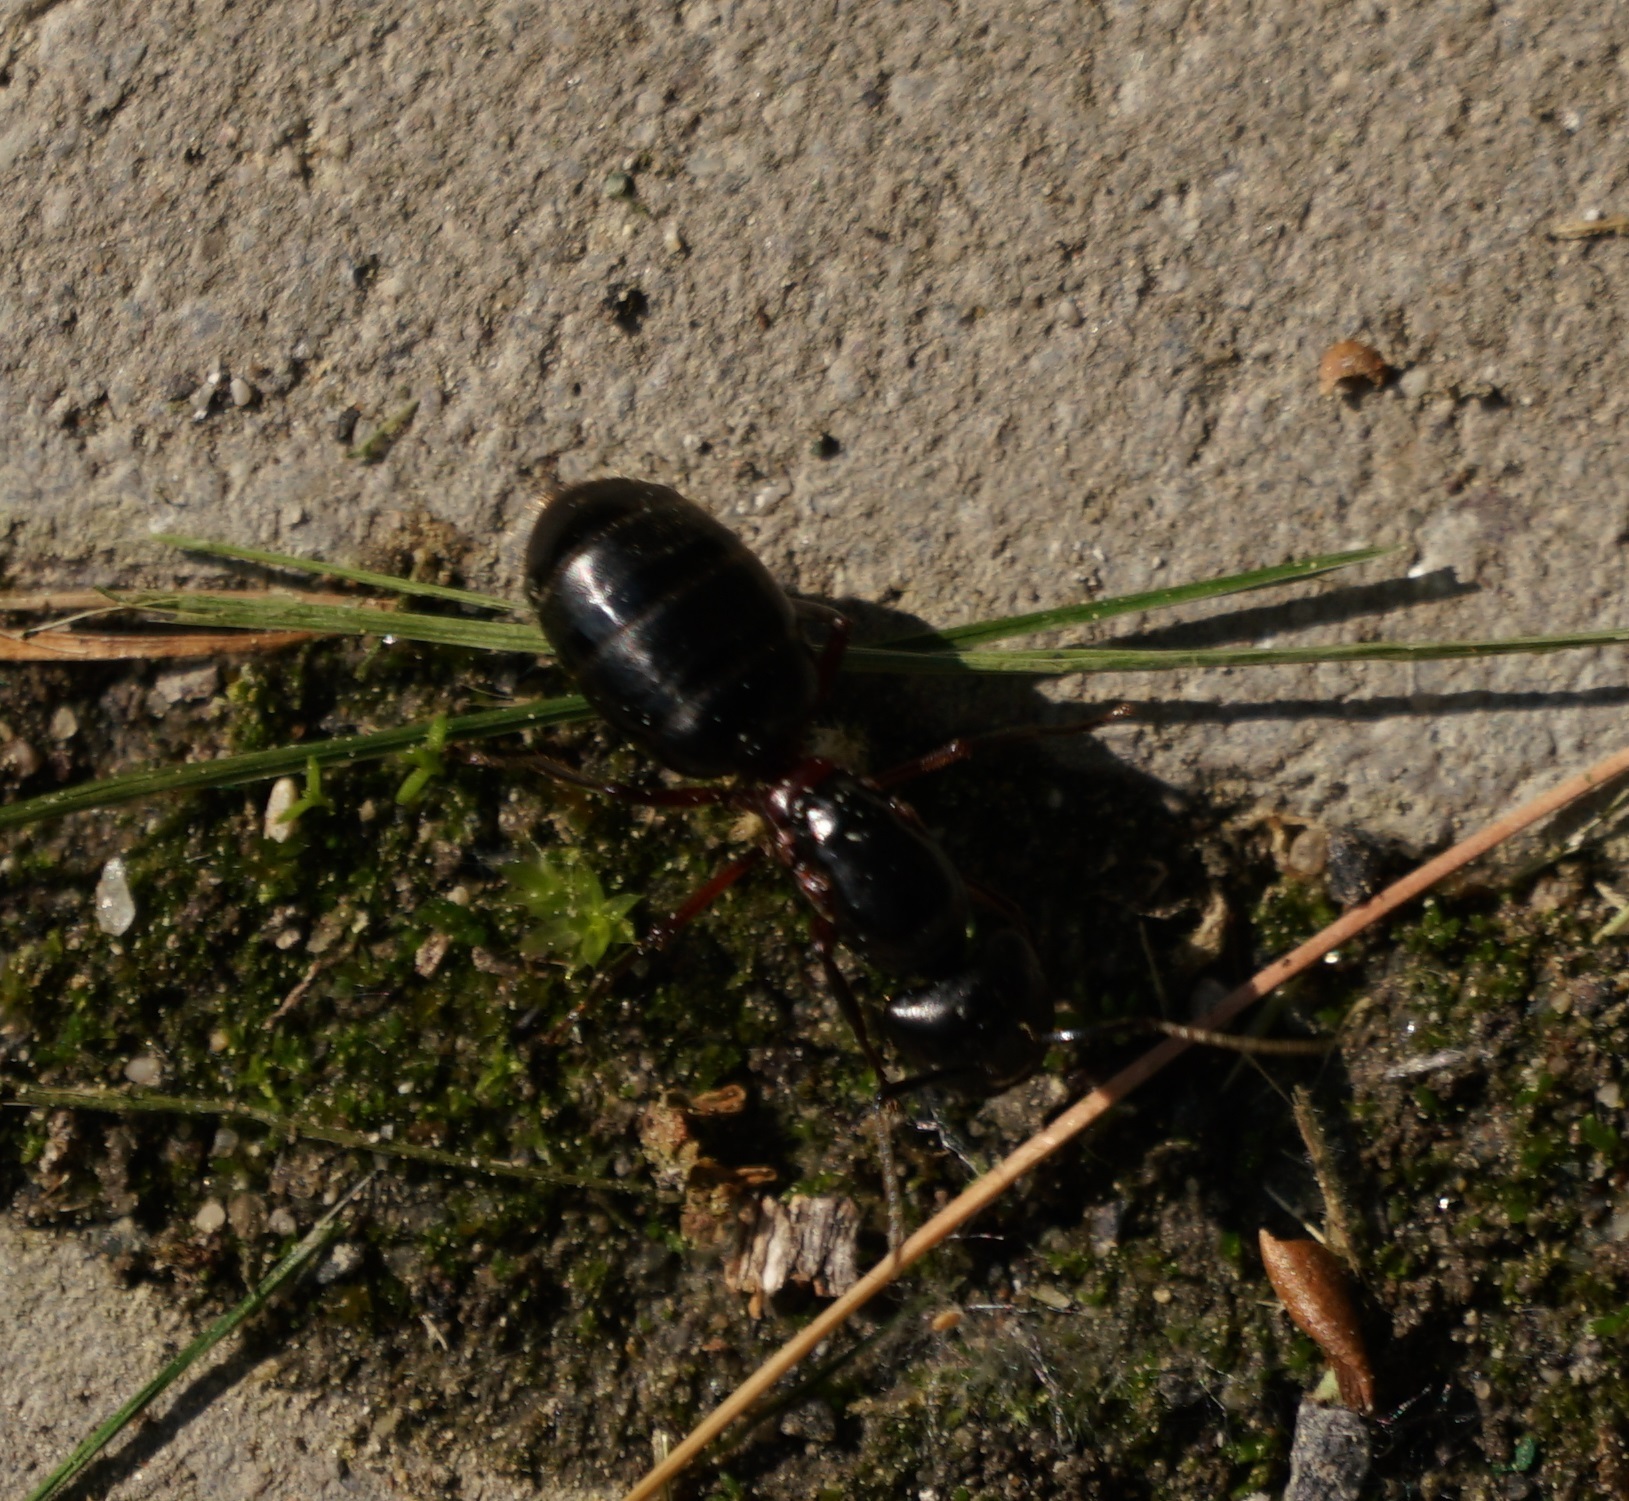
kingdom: Animalia
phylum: Arthropoda
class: Insecta
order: Hymenoptera
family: Formicidae
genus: Camponotus
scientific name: Camponotus herculeanus
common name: Hercules ant
